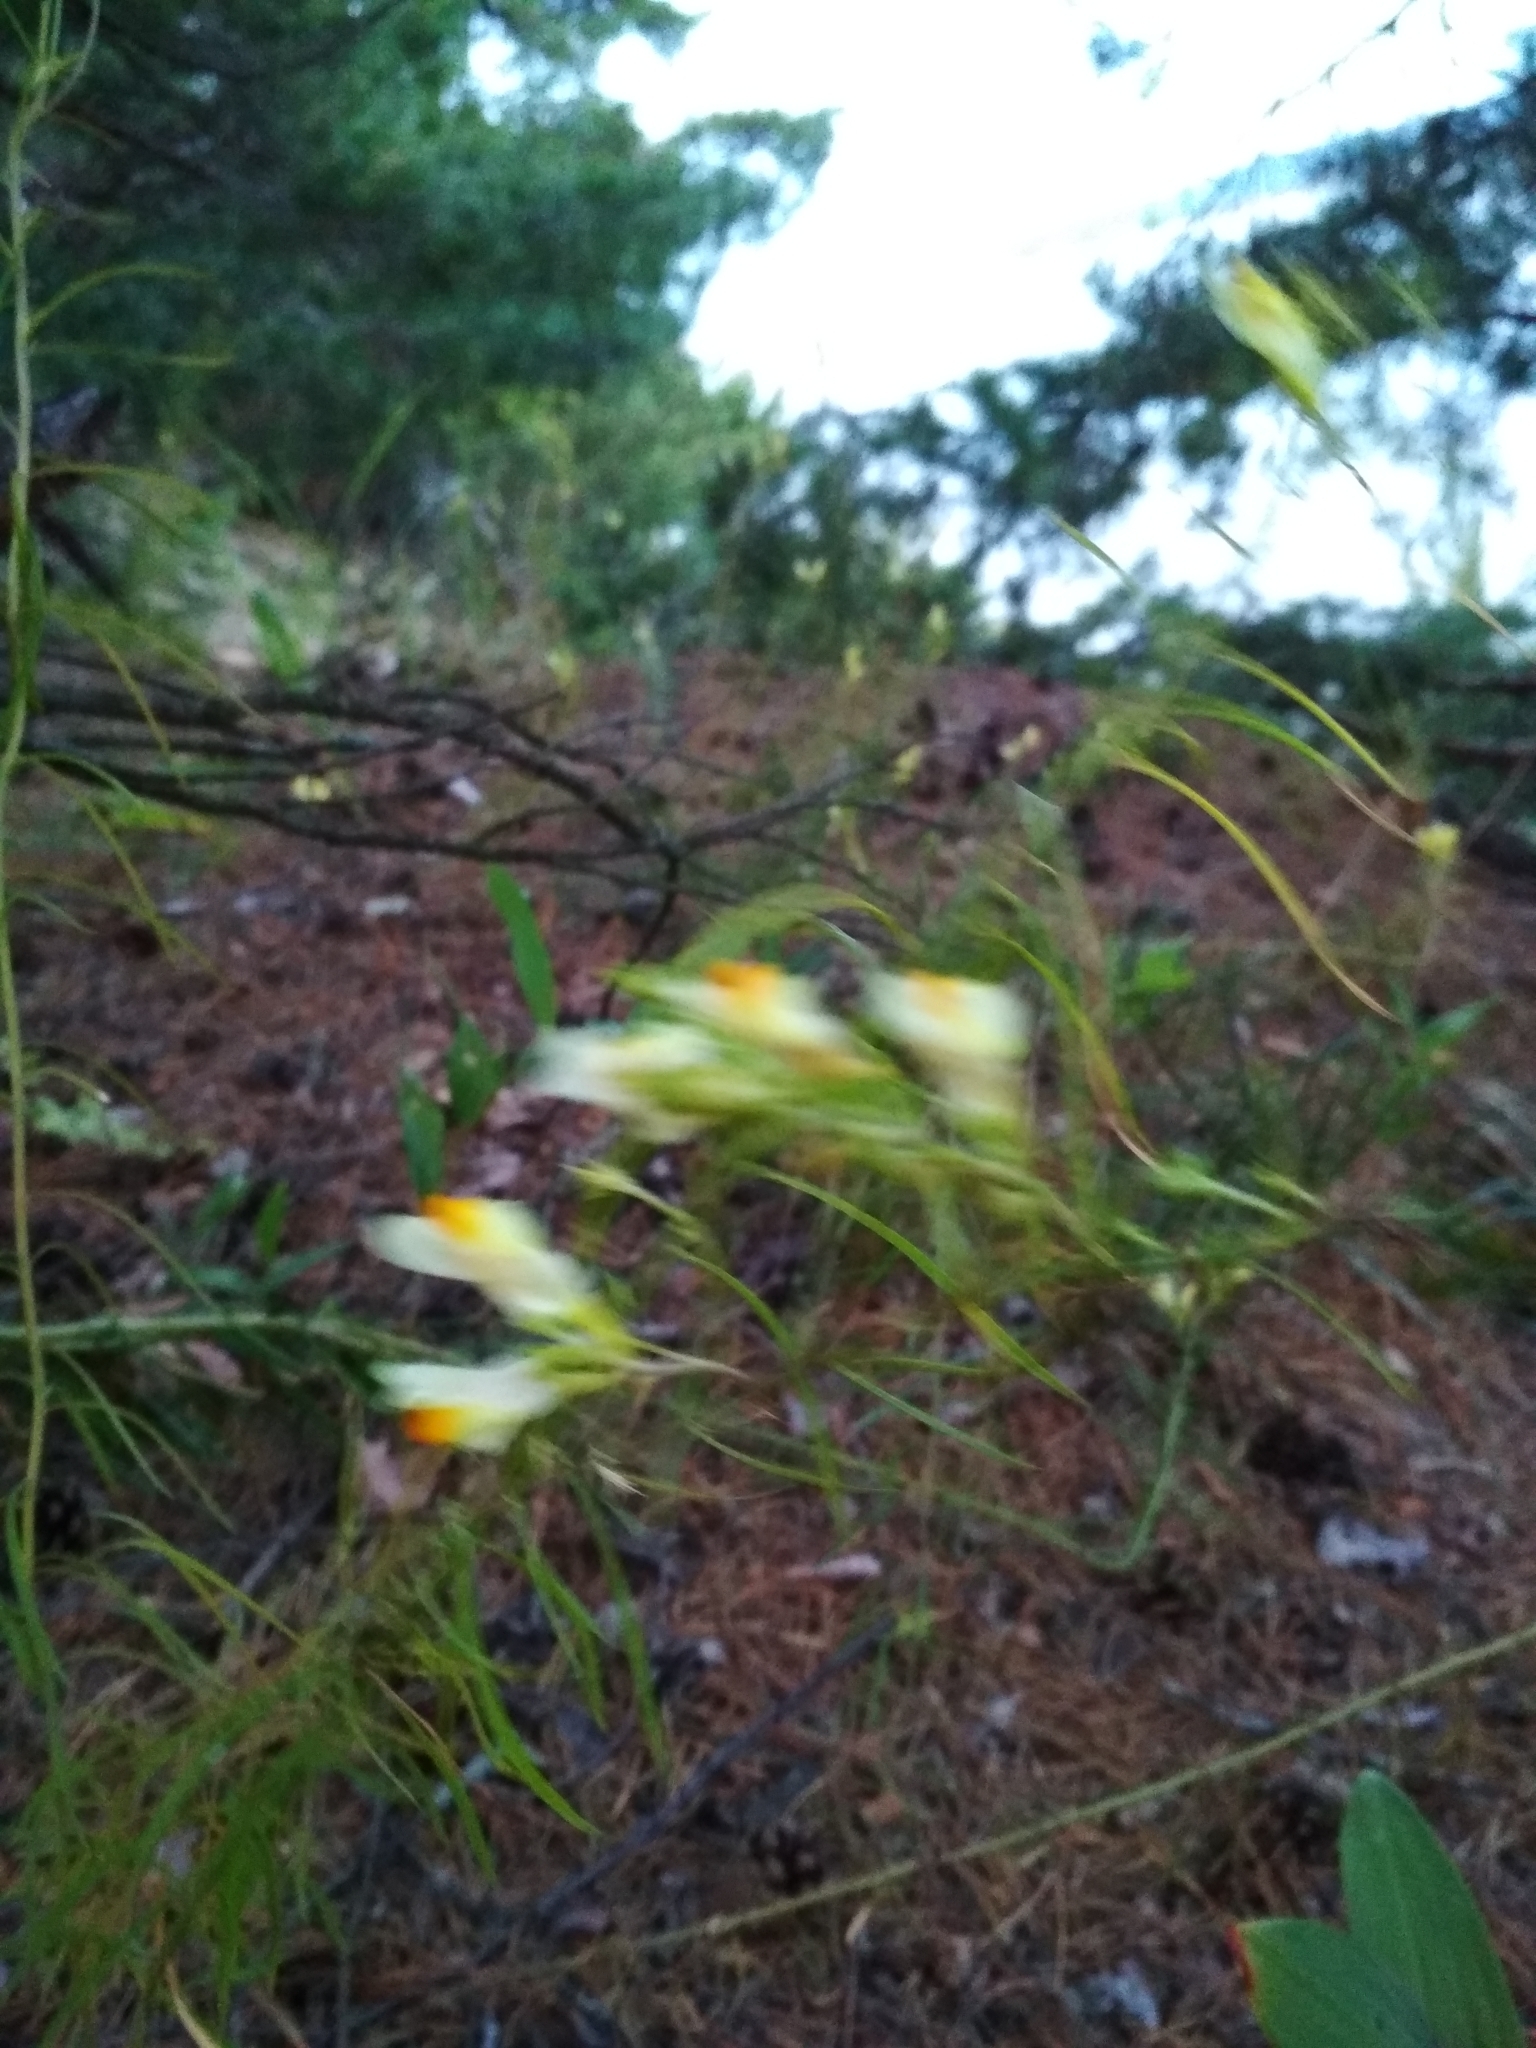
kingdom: Plantae
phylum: Tracheophyta
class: Magnoliopsida
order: Lamiales
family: Plantaginaceae
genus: Linaria
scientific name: Linaria vulgaris
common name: Butter and eggs
